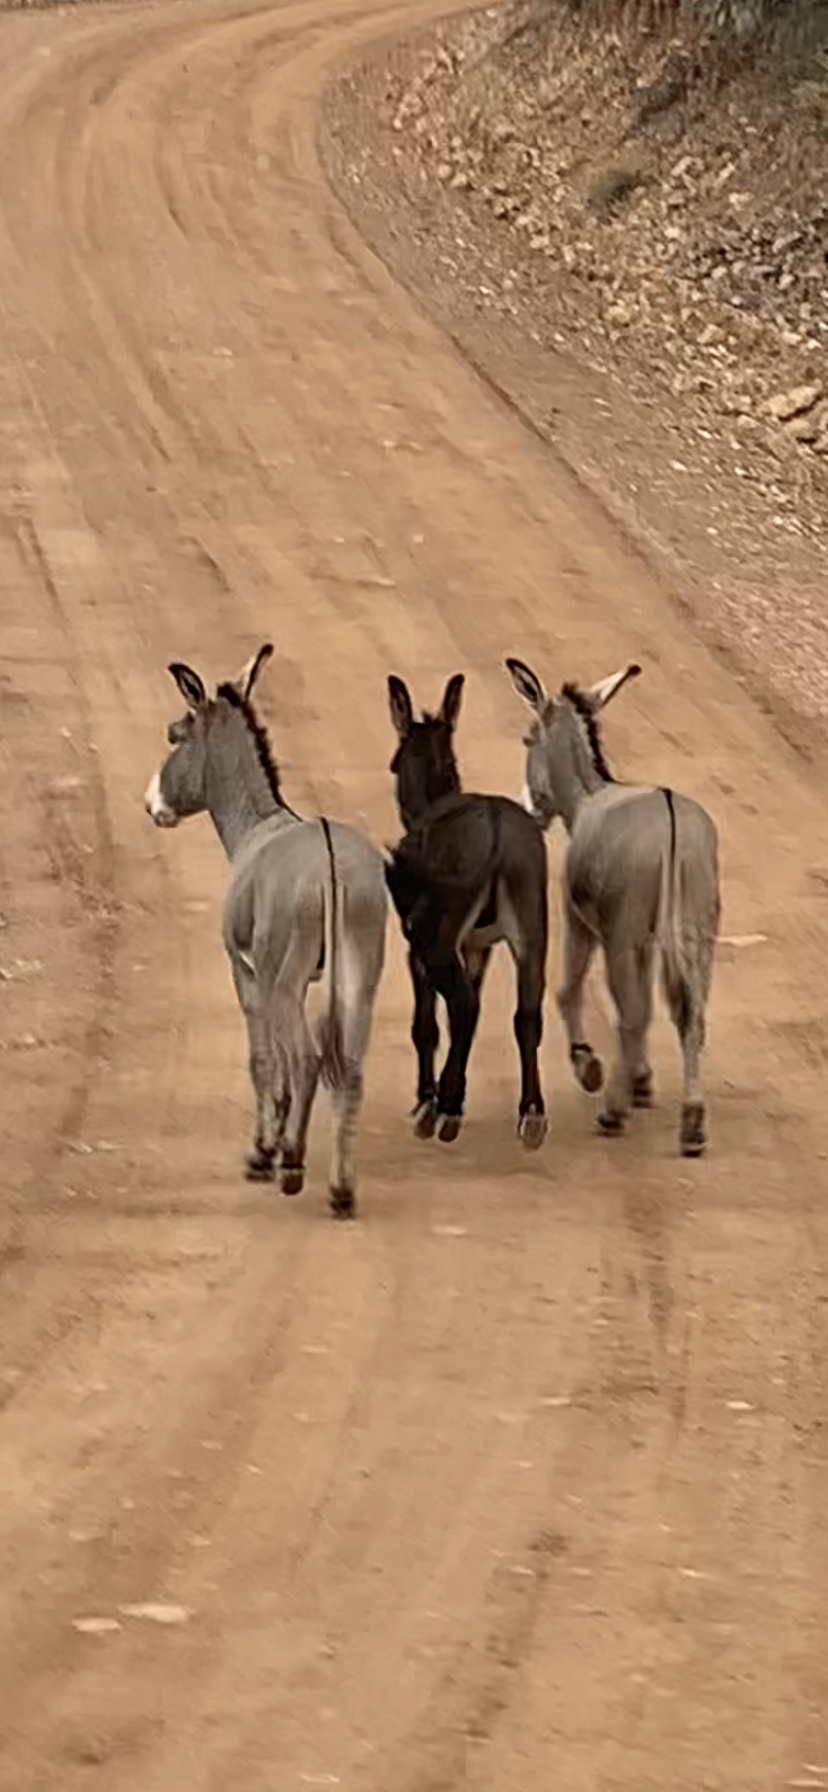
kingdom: Animalia
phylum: Chordata
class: Mammalia
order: Perissodactyla
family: Equidae
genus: Equus
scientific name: Equus asinus
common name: Ass
